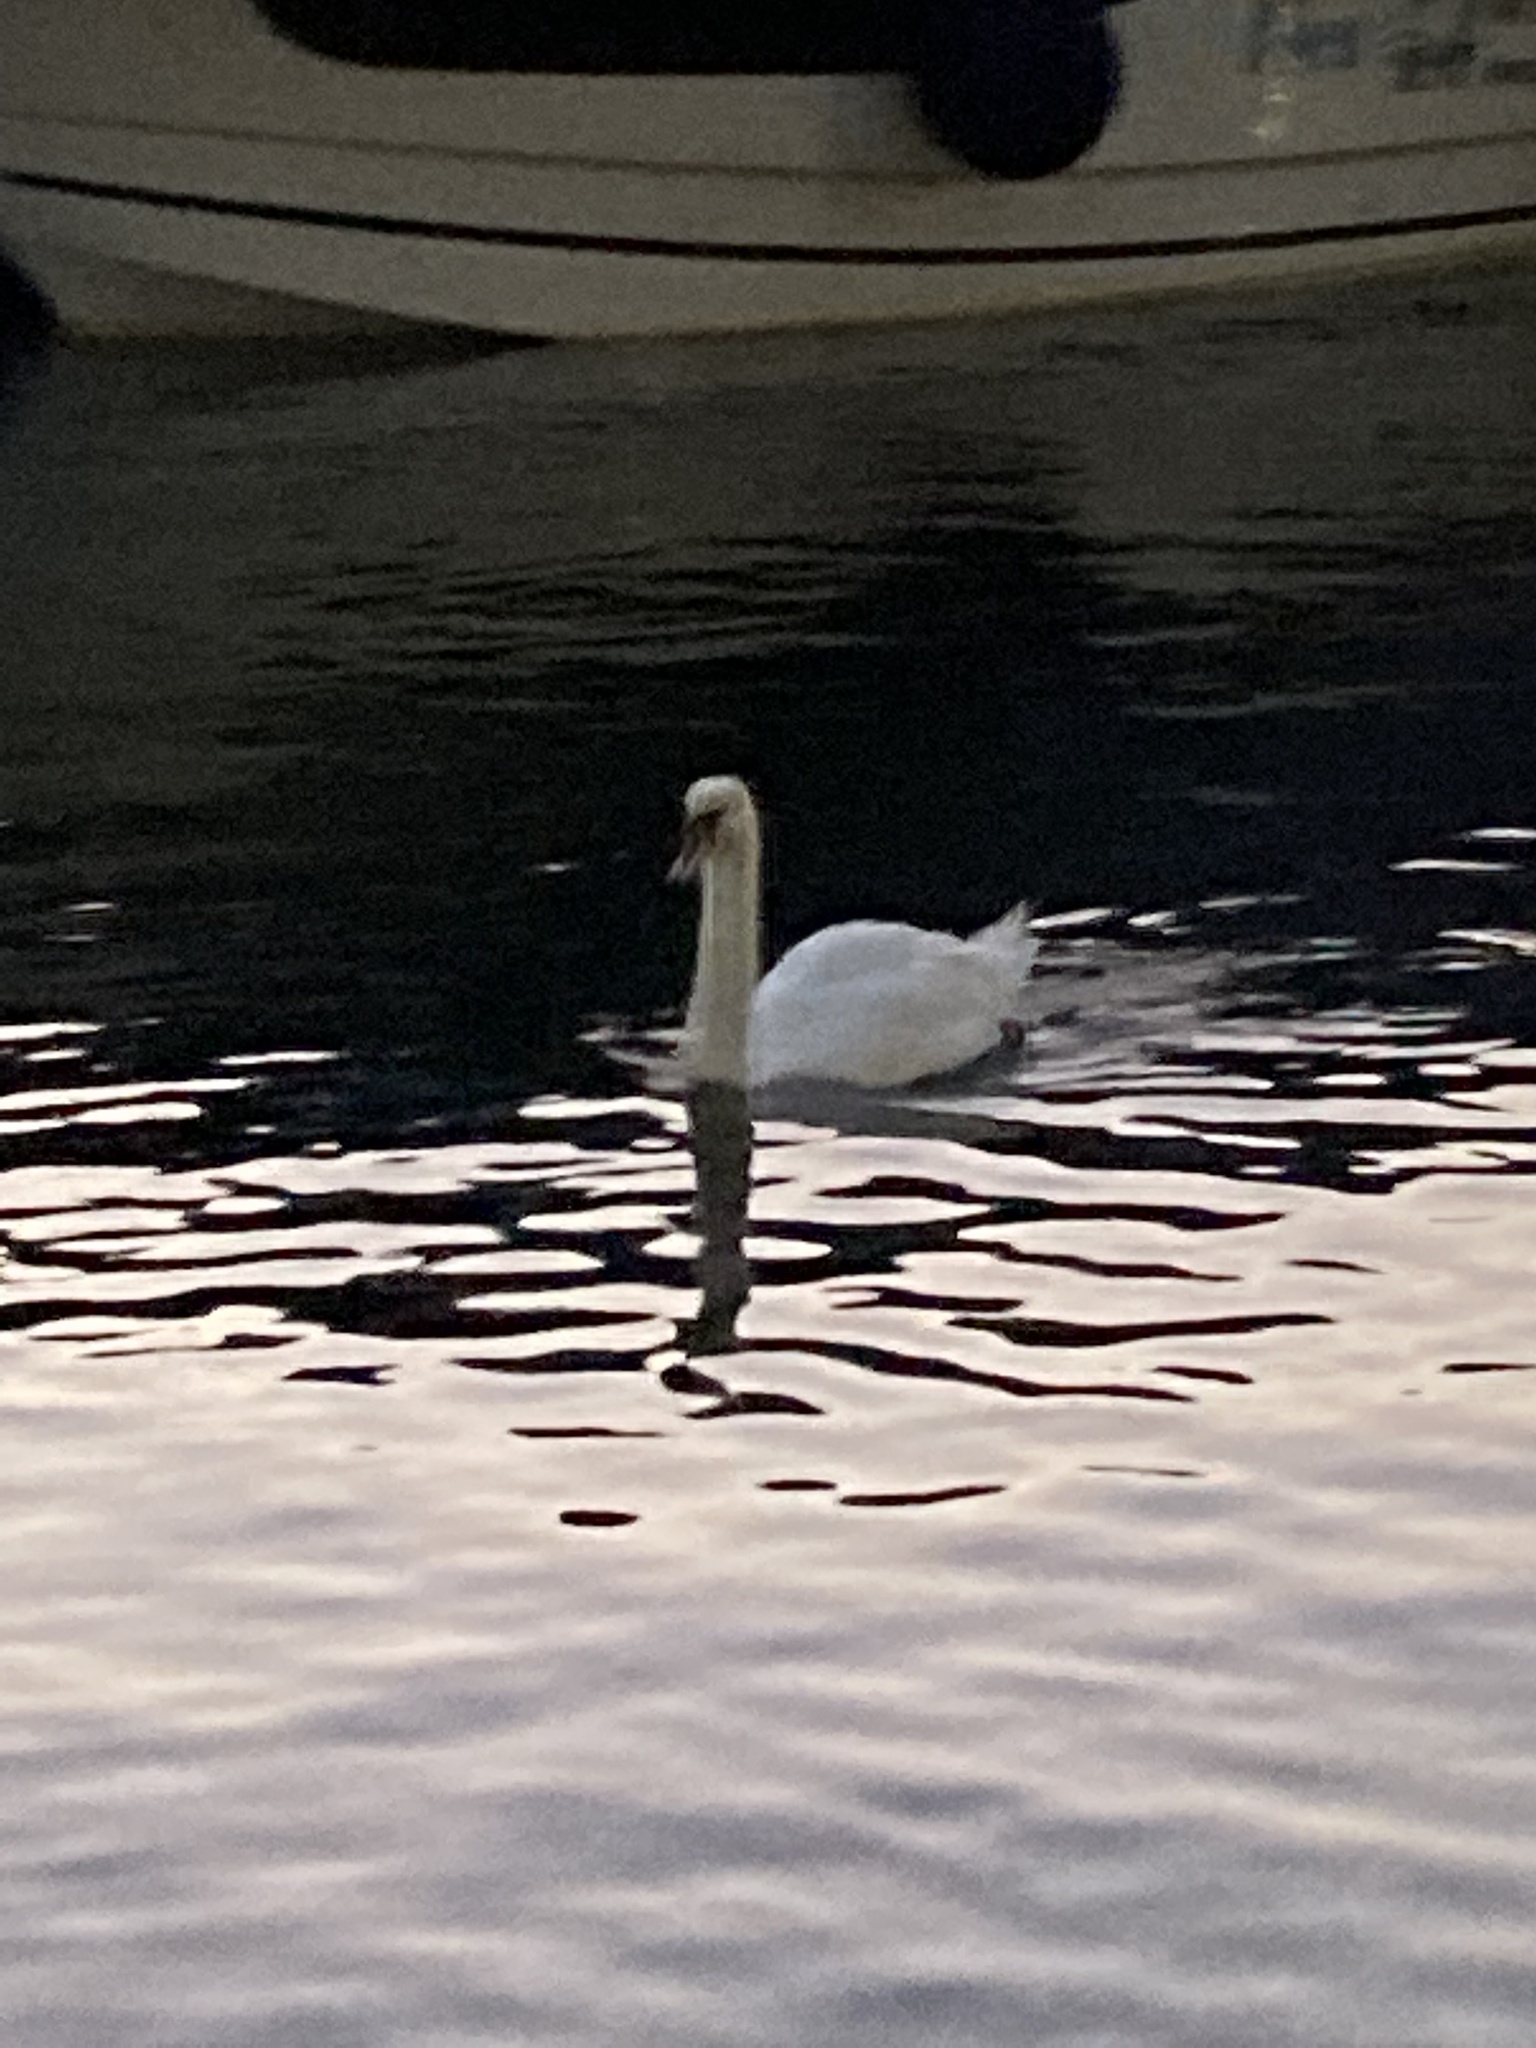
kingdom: Animalia
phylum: Chordata
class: Aves
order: Anseriformes
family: Anatidae
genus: Cygnus
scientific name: Cygnus olor
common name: Mute swan
